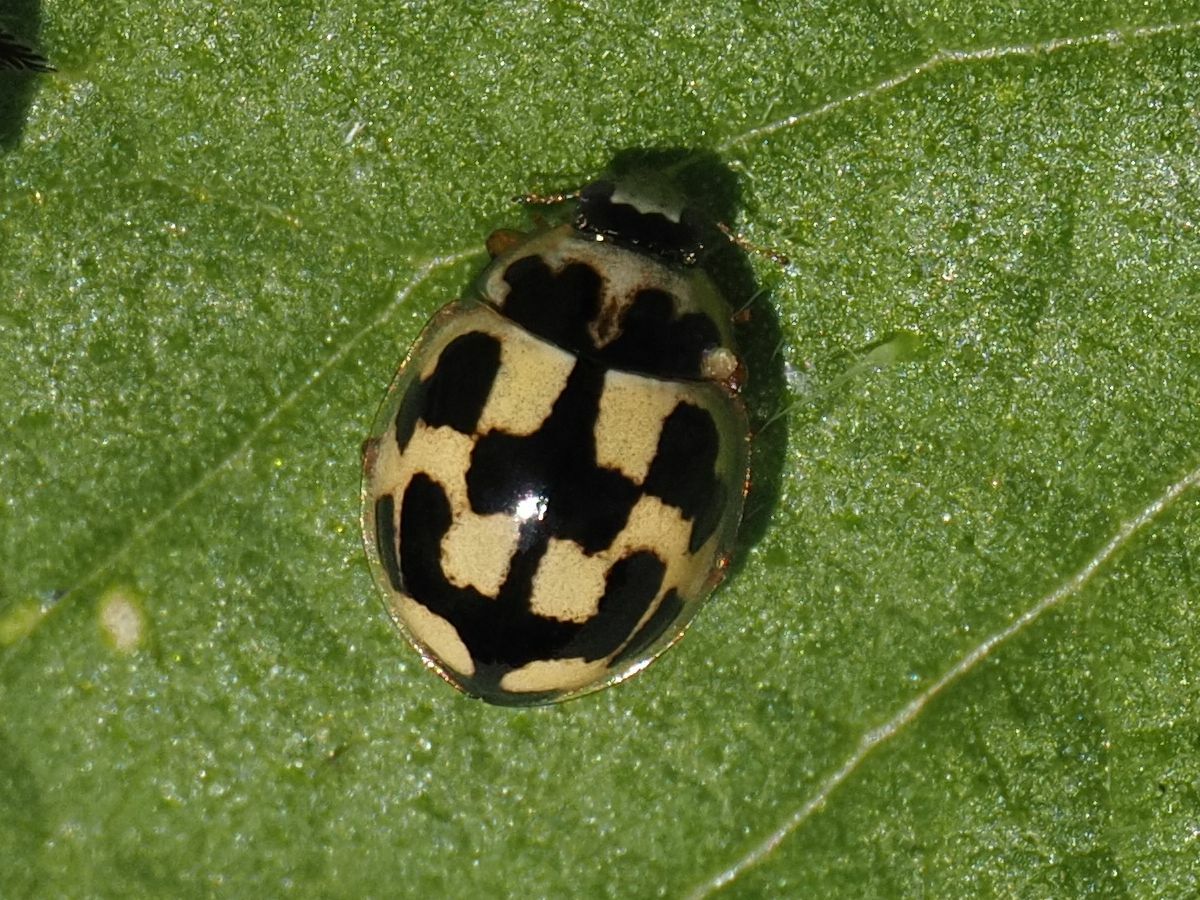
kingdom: Animalia
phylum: Arthropoda
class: Insecta
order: Coleoptera
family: Coccinellidae
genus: Propylaea
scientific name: Propylaea quatuordecimpunctata
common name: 14-spotted ladybird beetle
